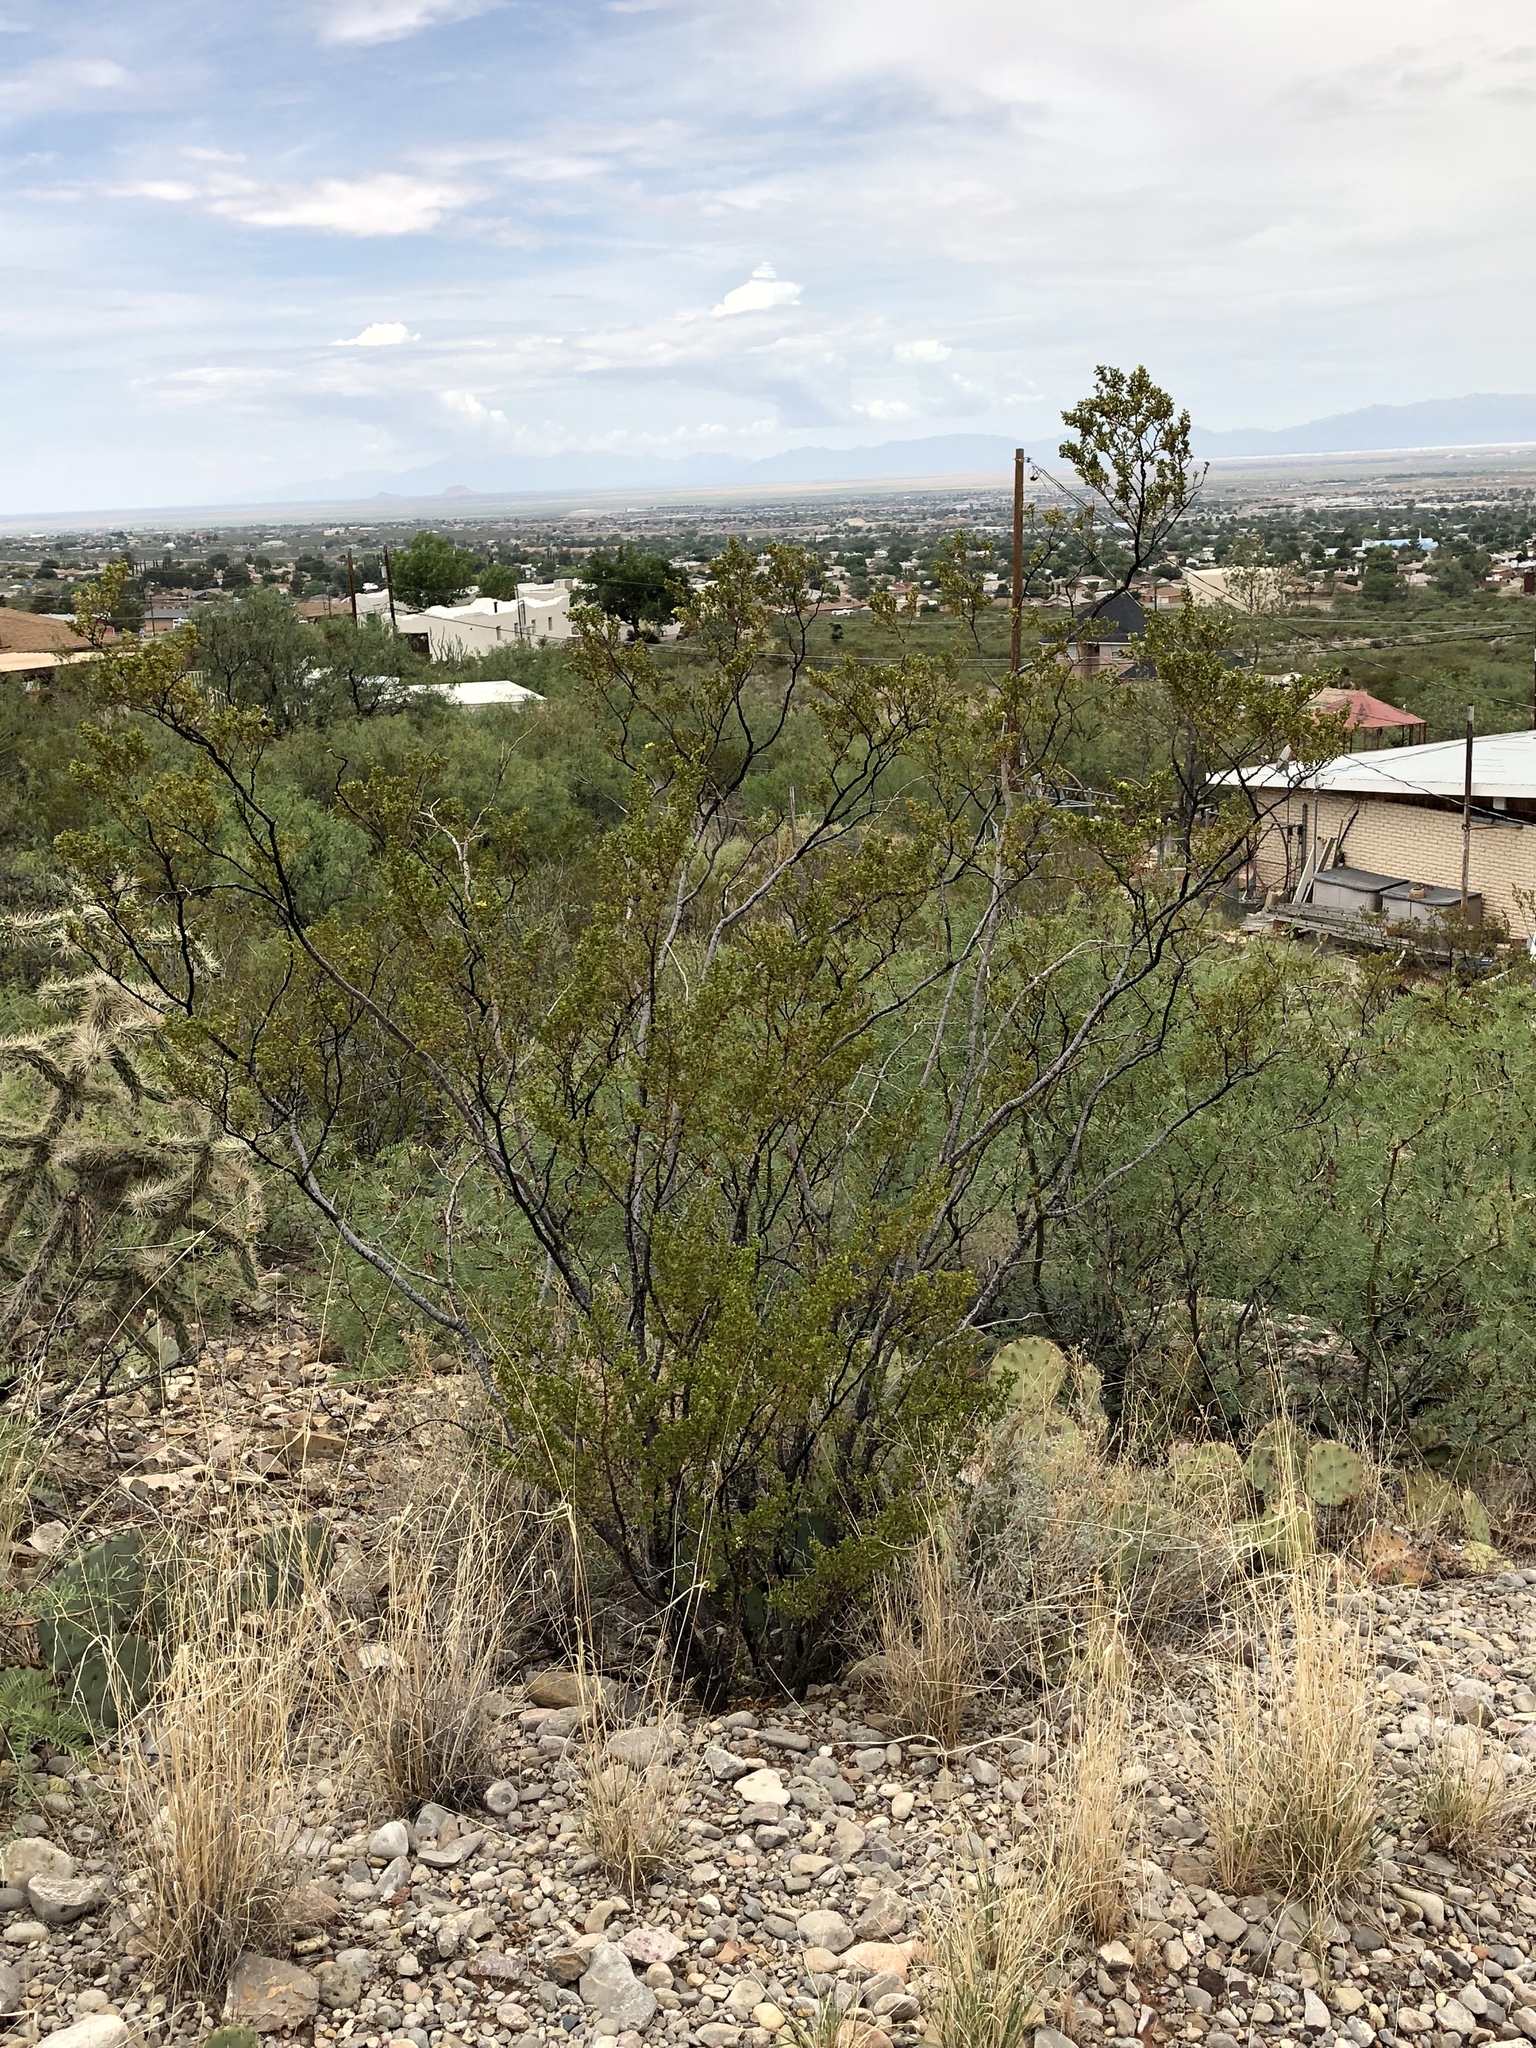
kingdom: Plantae
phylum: Tracheophyta
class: Magnoliopsida
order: Zygophyllales
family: Zygophyllaceae
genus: Larrea
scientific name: Larrea tridentata
